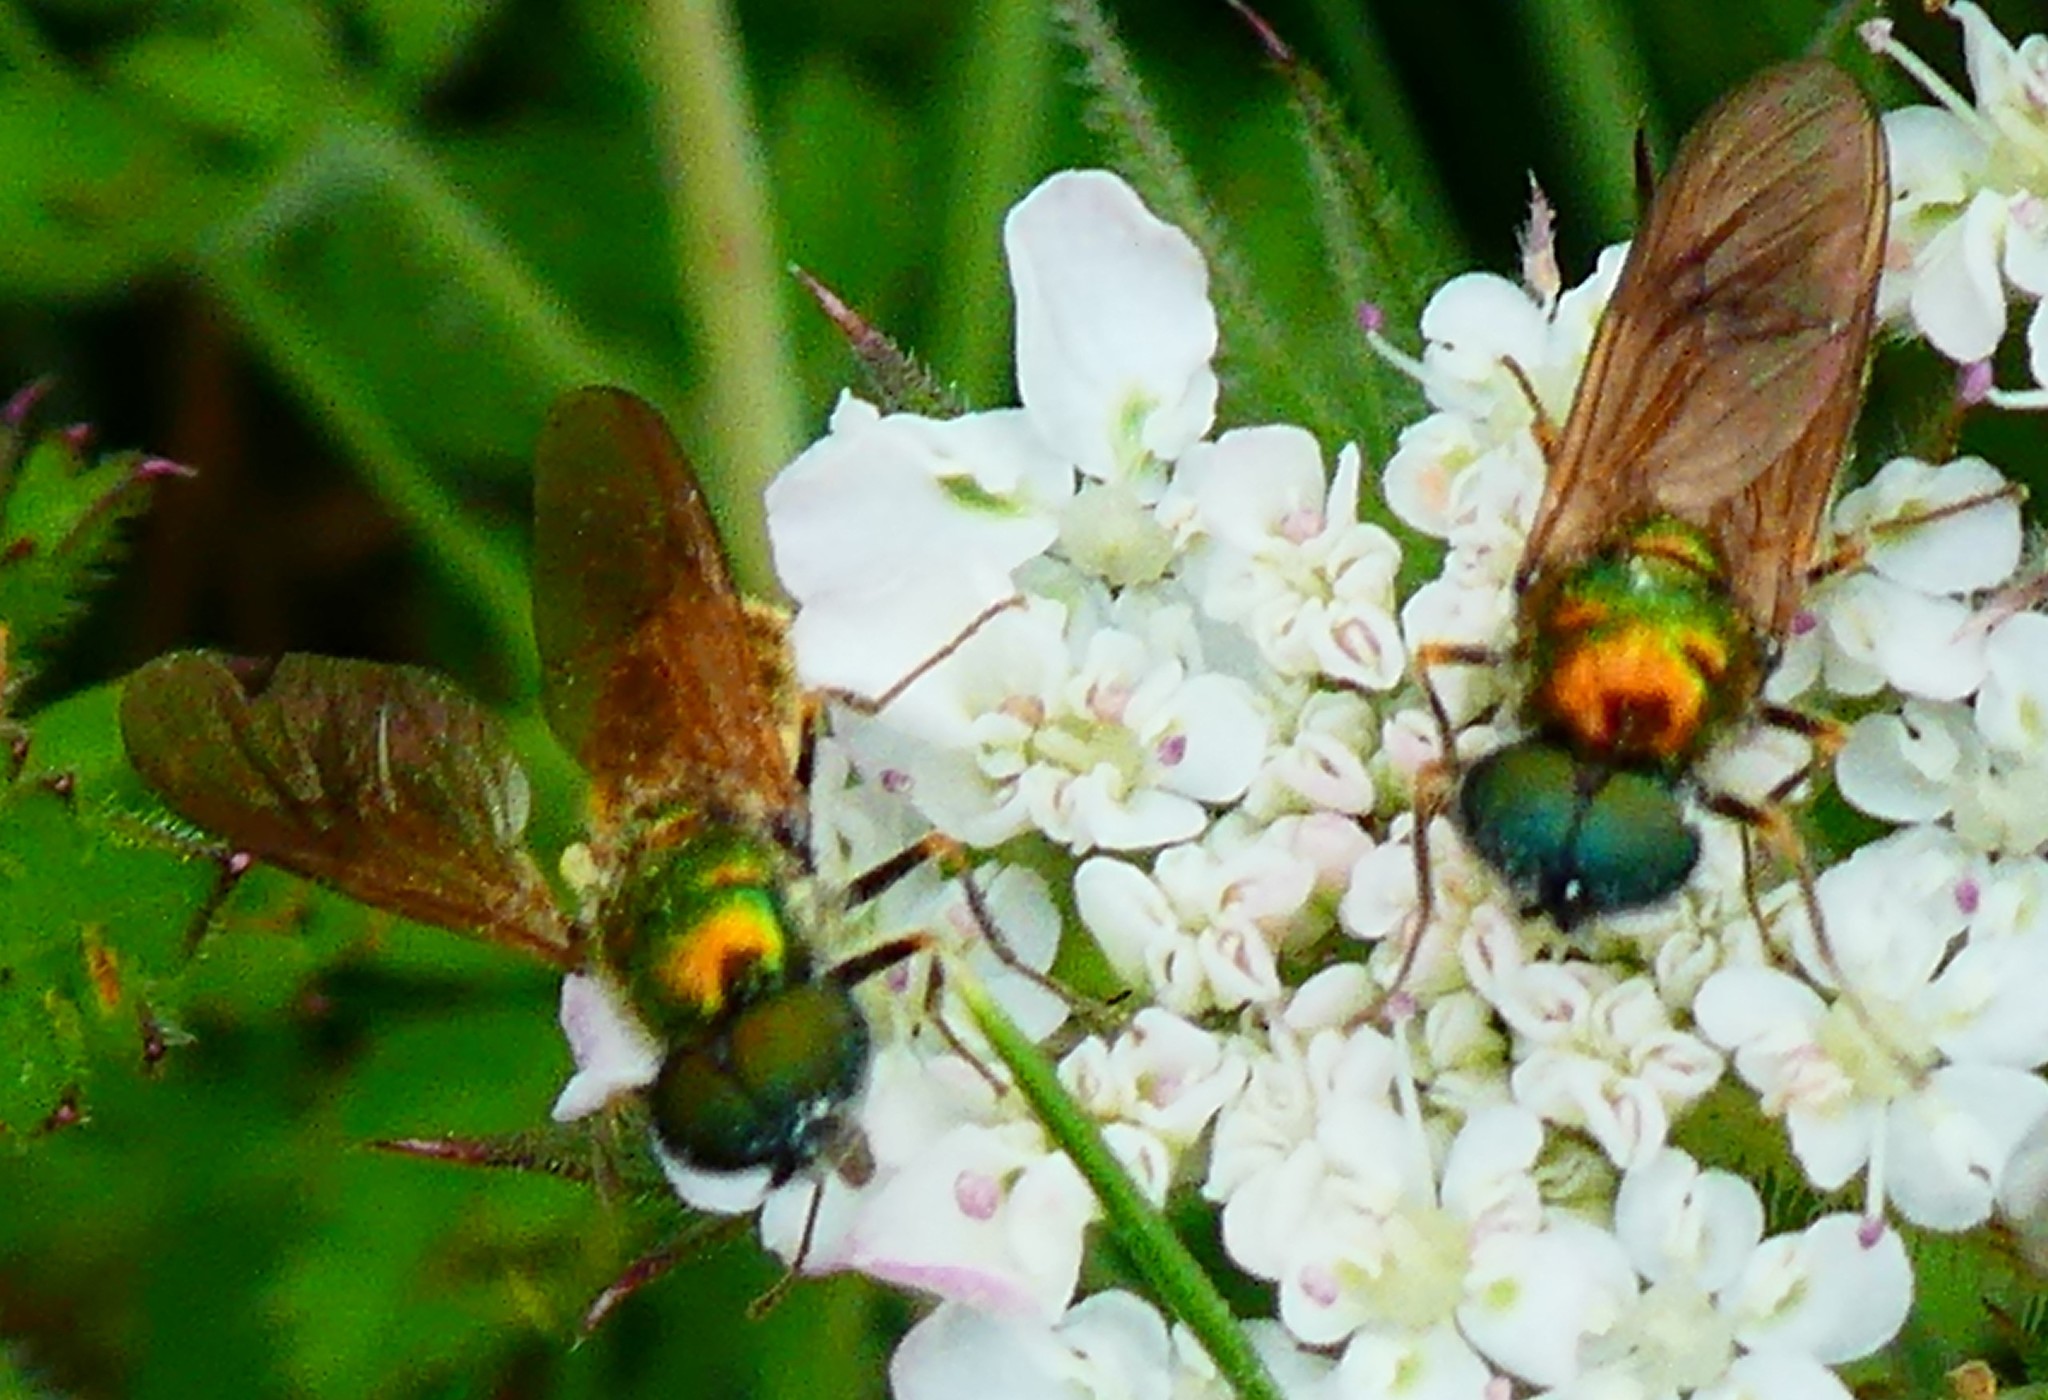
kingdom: Animalia
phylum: Arthropoda
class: Insecta
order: Diptera
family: Stratiomyidae
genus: Chloromyia
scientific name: Chloromyia formosa
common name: Soldier fly
